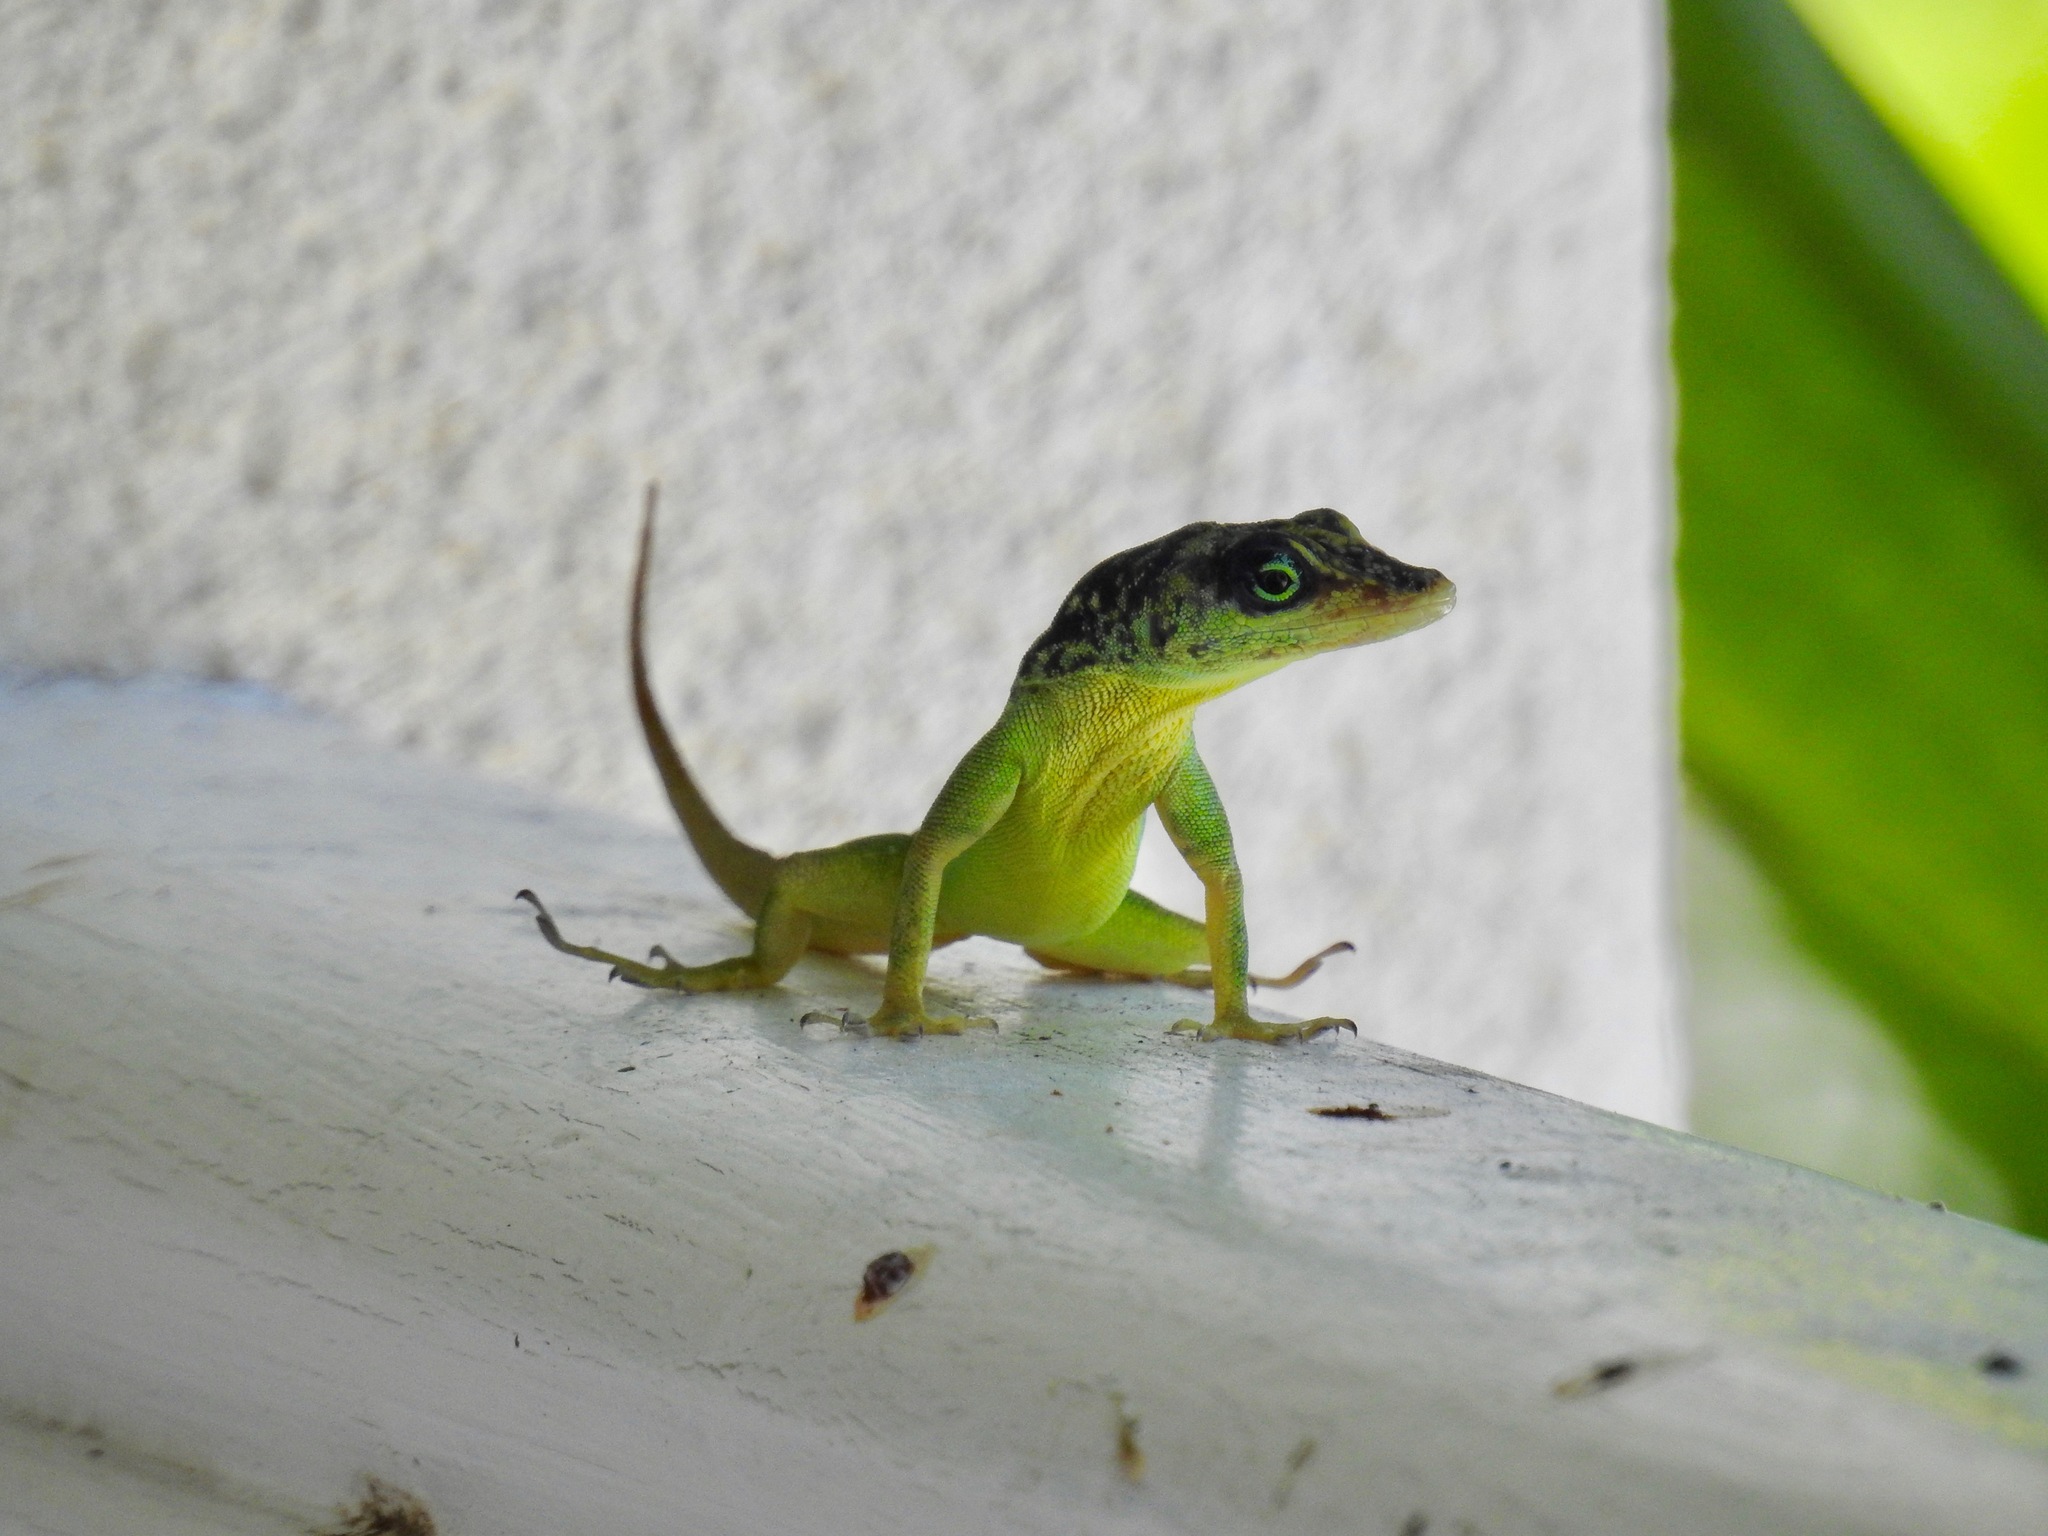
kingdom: Animalia
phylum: Chordata
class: Squamata
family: Dactyloidae
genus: Anolis
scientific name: Anolis extremus
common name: Barbados anole
